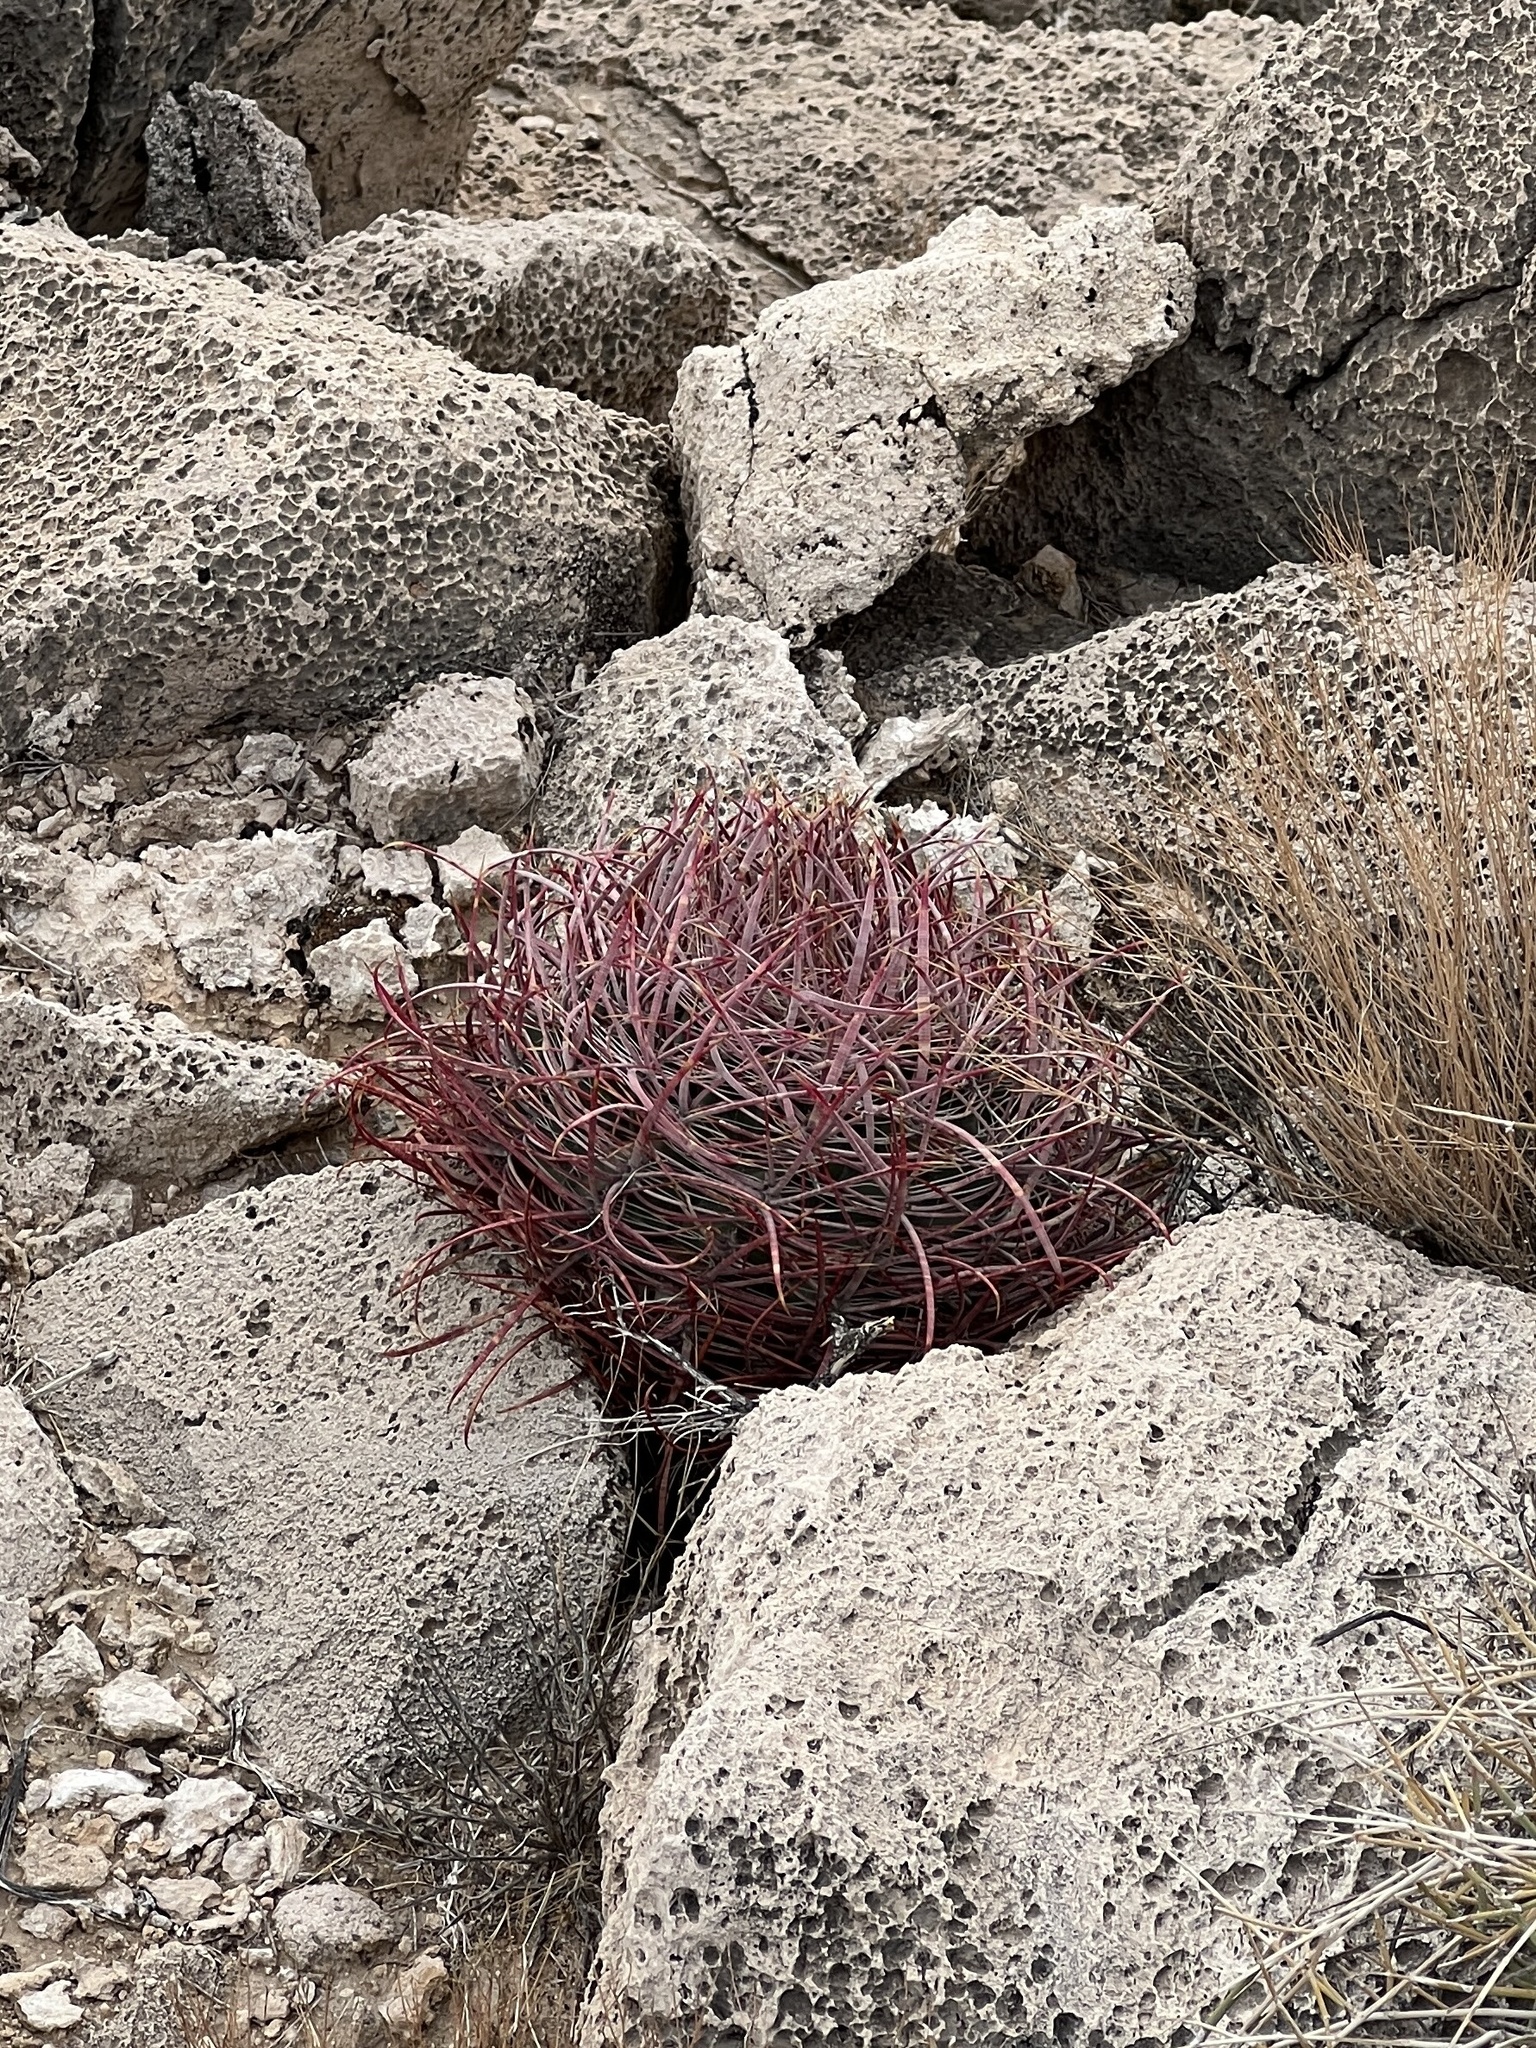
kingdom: Plantae
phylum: Tracheophyta
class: Magnoliopsida
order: Caryophyllales
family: Cactaceae
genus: Ferocactus
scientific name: Ferocactus cylindraceus
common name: California barrel cactus
